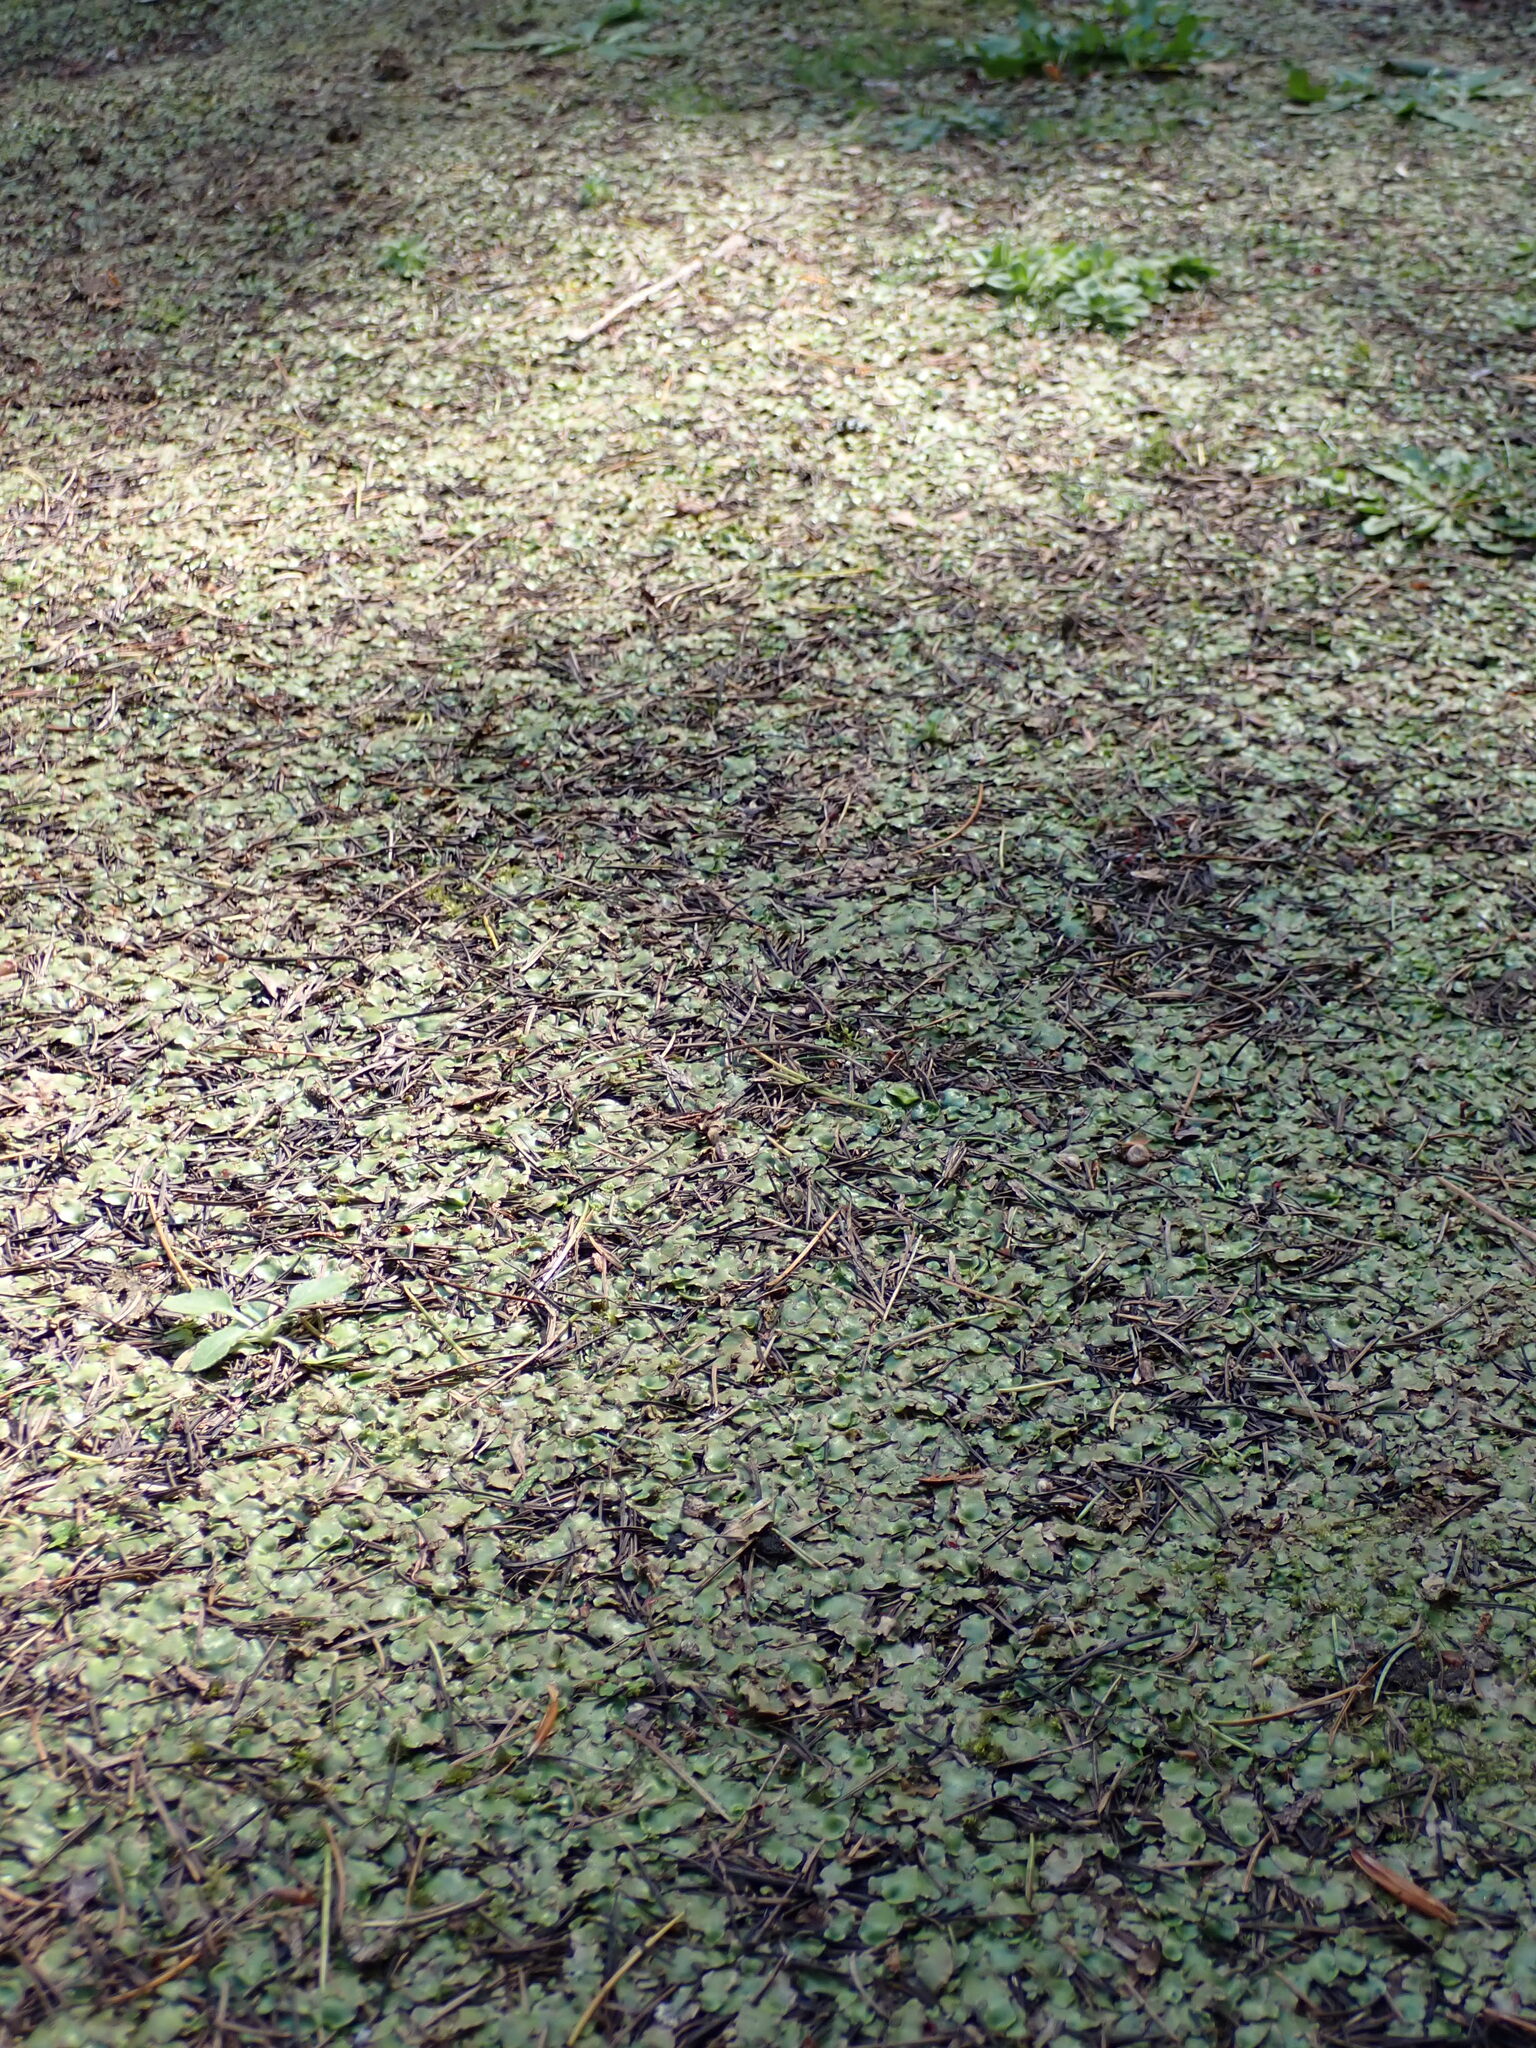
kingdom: Plantae
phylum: Marchantiophyta
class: Marchantiopsida
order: Lunulariales
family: Lunulariaceae
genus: Lunularia
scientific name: Lunularia cruciata
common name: Crescent-cup liverwort
